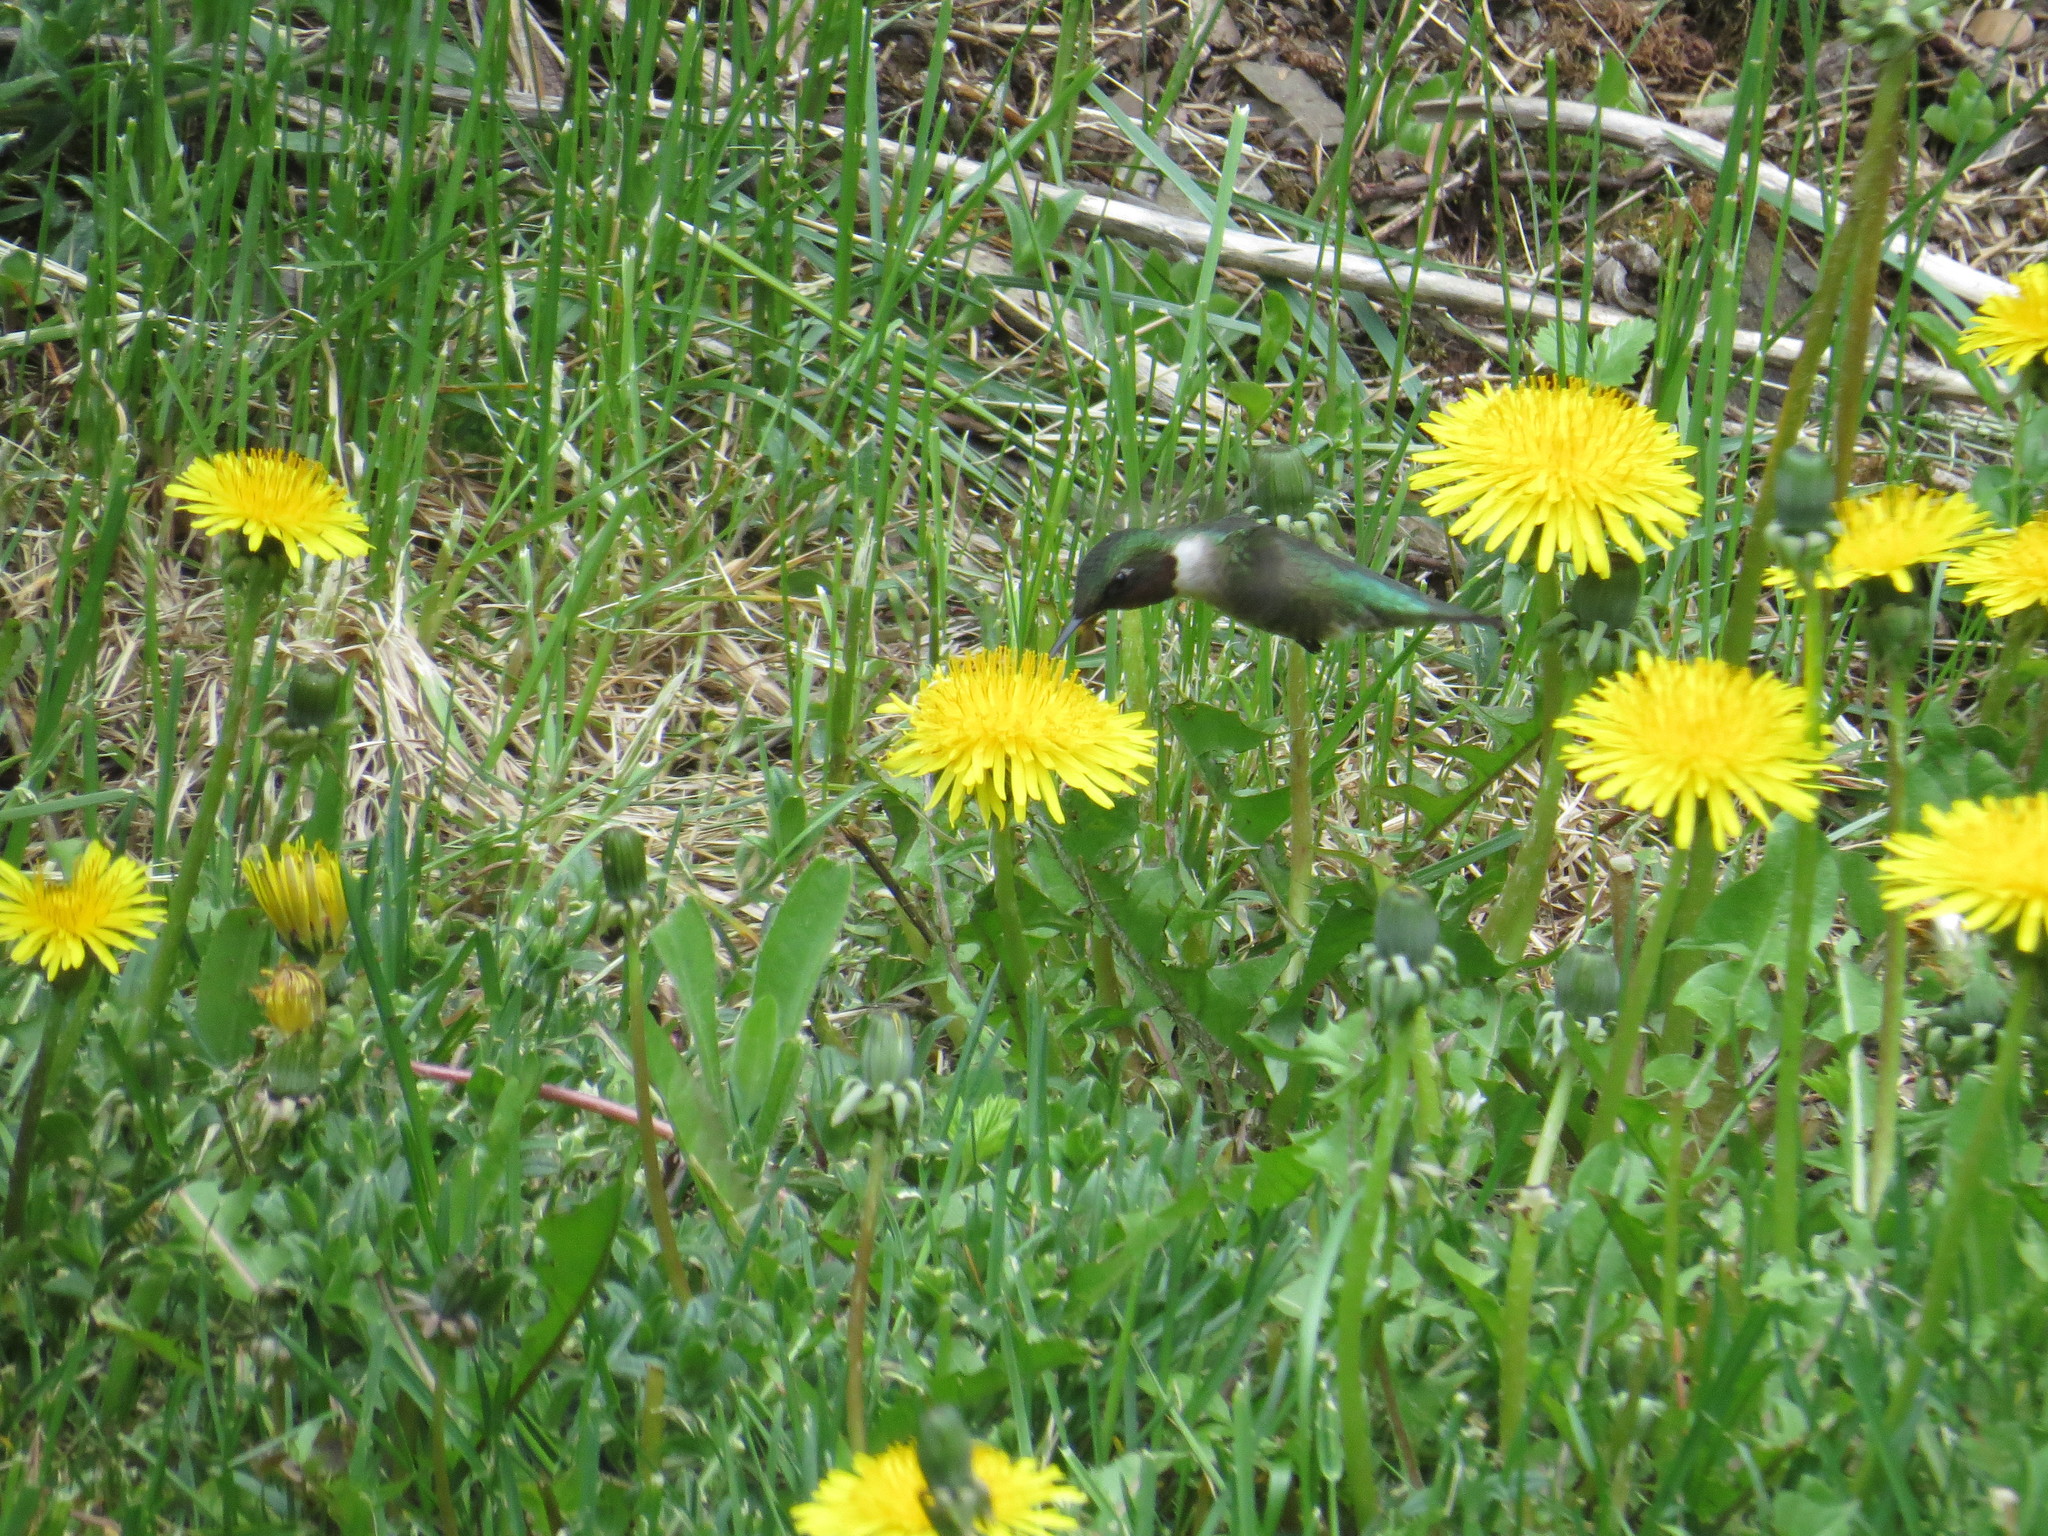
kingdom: Animalia
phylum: Chordata
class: Aves
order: Apodiformes
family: Trochilidae
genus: Archilochus
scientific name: Archilochus colubris
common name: Ruby-throated hummingbird
